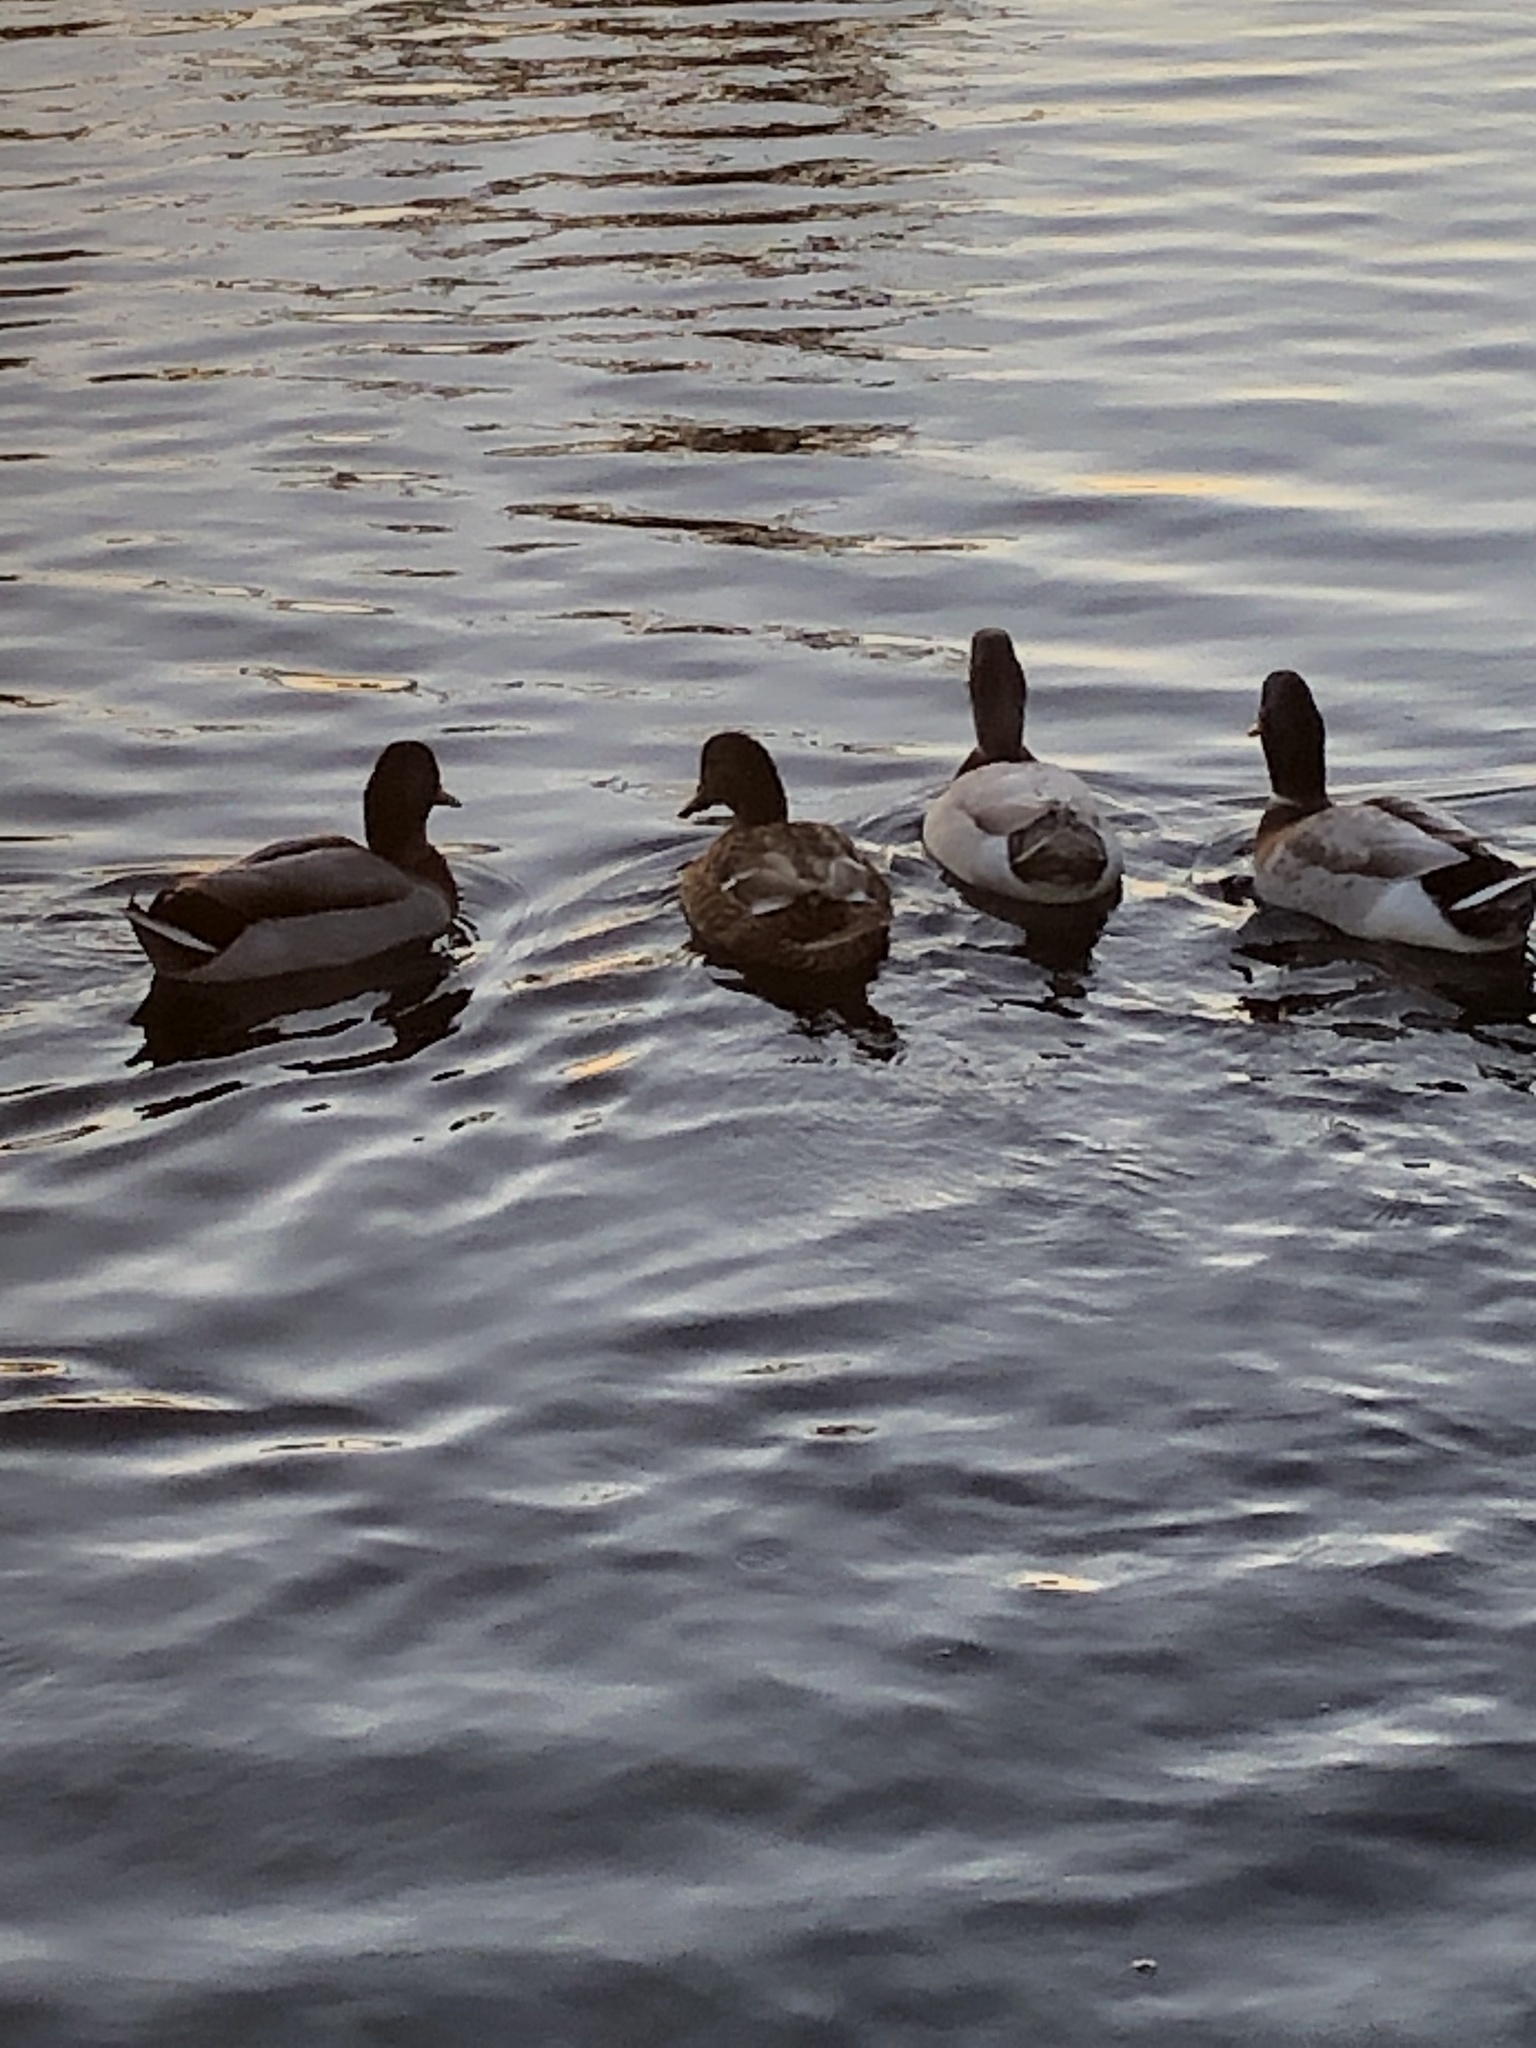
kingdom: Animalia
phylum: Chordata
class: Aves
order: Anseriformes
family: Anatidae
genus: Anas
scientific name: Anas platyrhynchos
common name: Mallard
